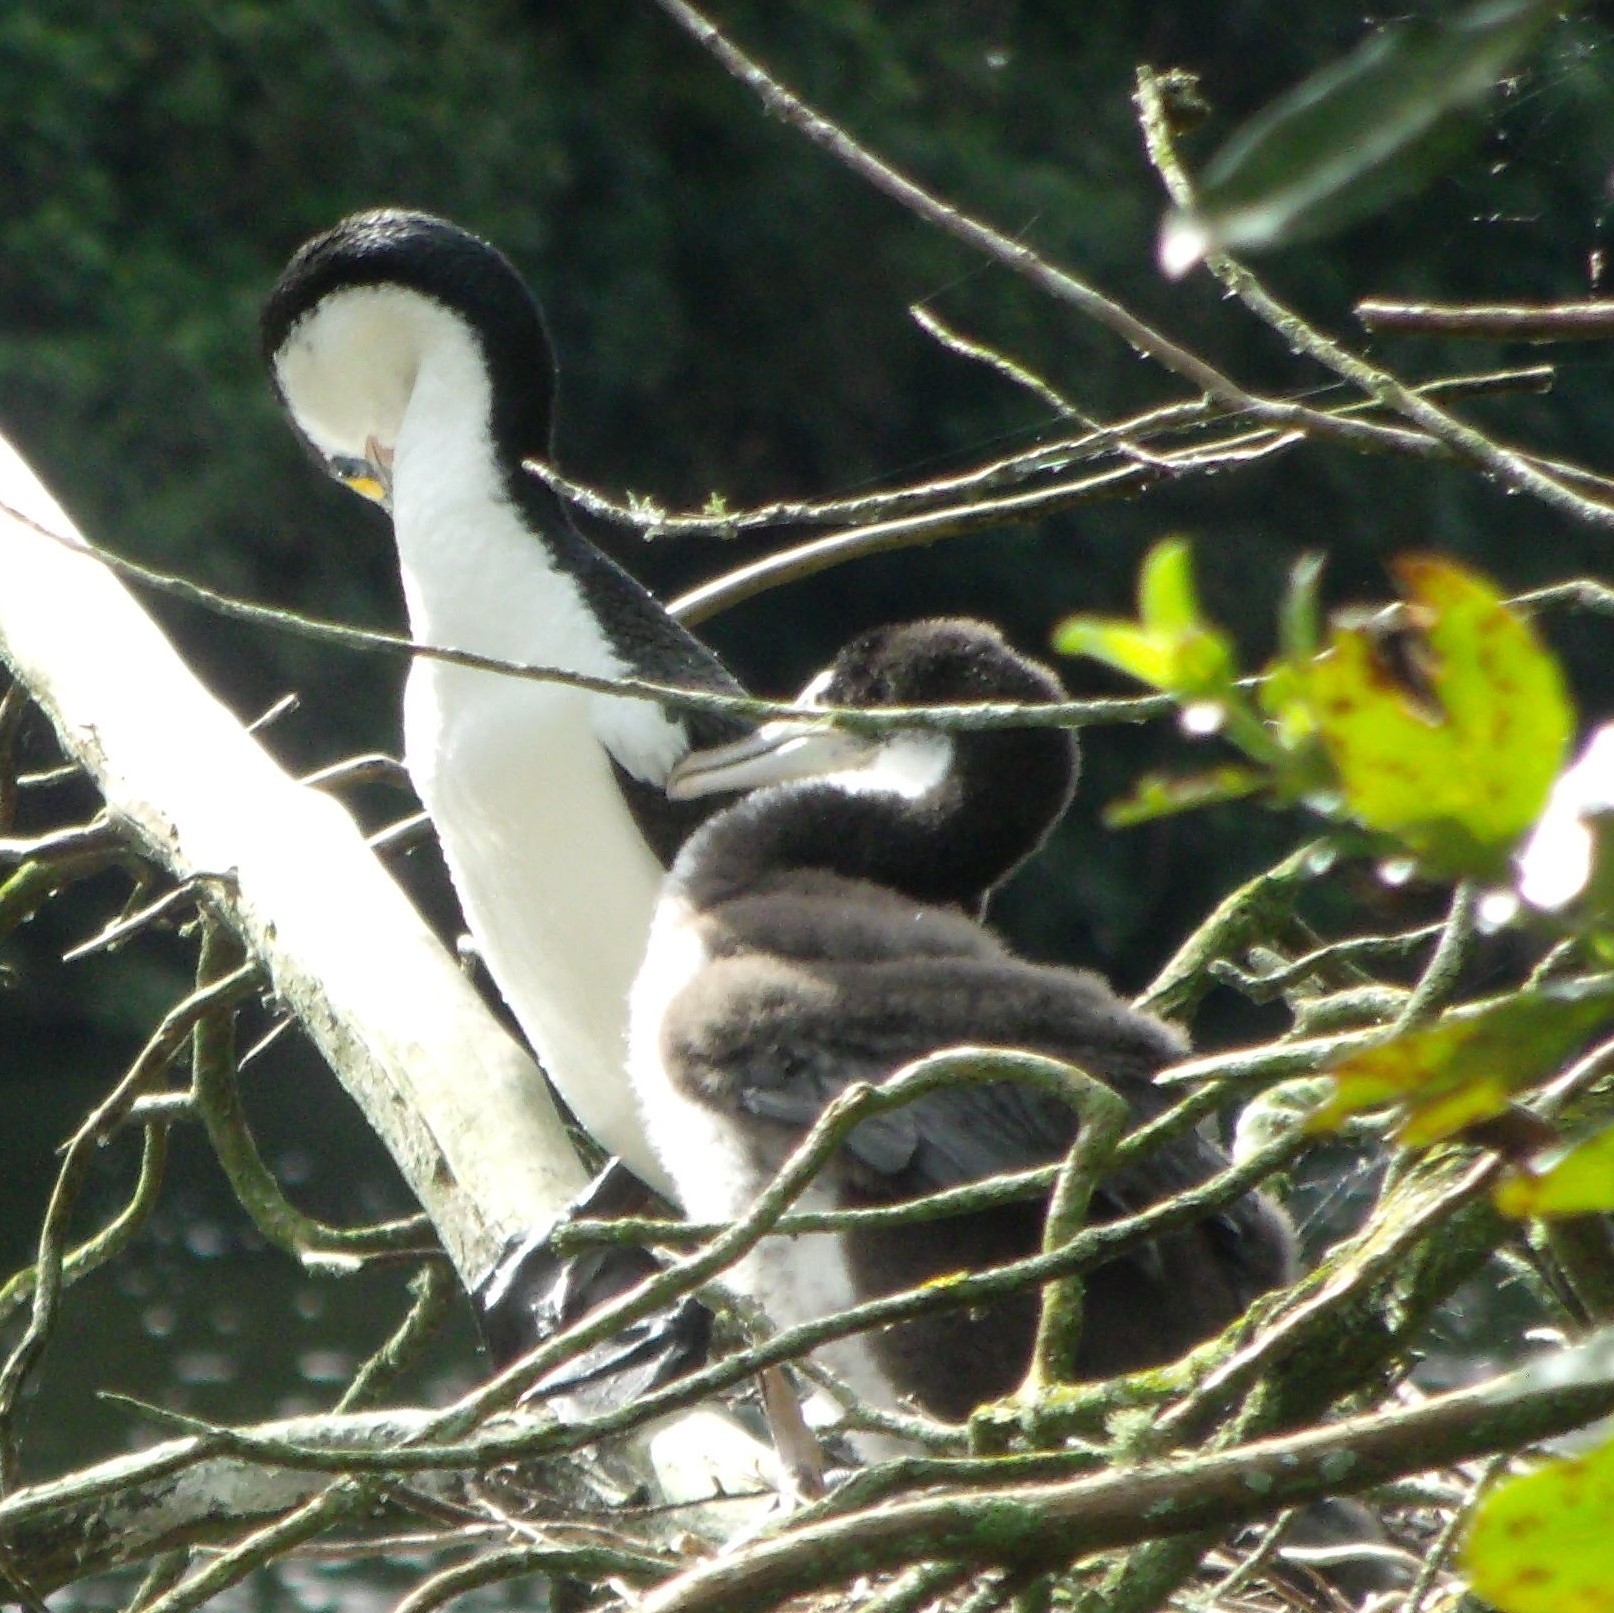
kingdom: Animalia
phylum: Chordata
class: Aves
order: Suliformes
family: Phalacrocoracidae
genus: Phalacrocorax
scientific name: Phalacrocorax varius
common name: Pied cormorant
